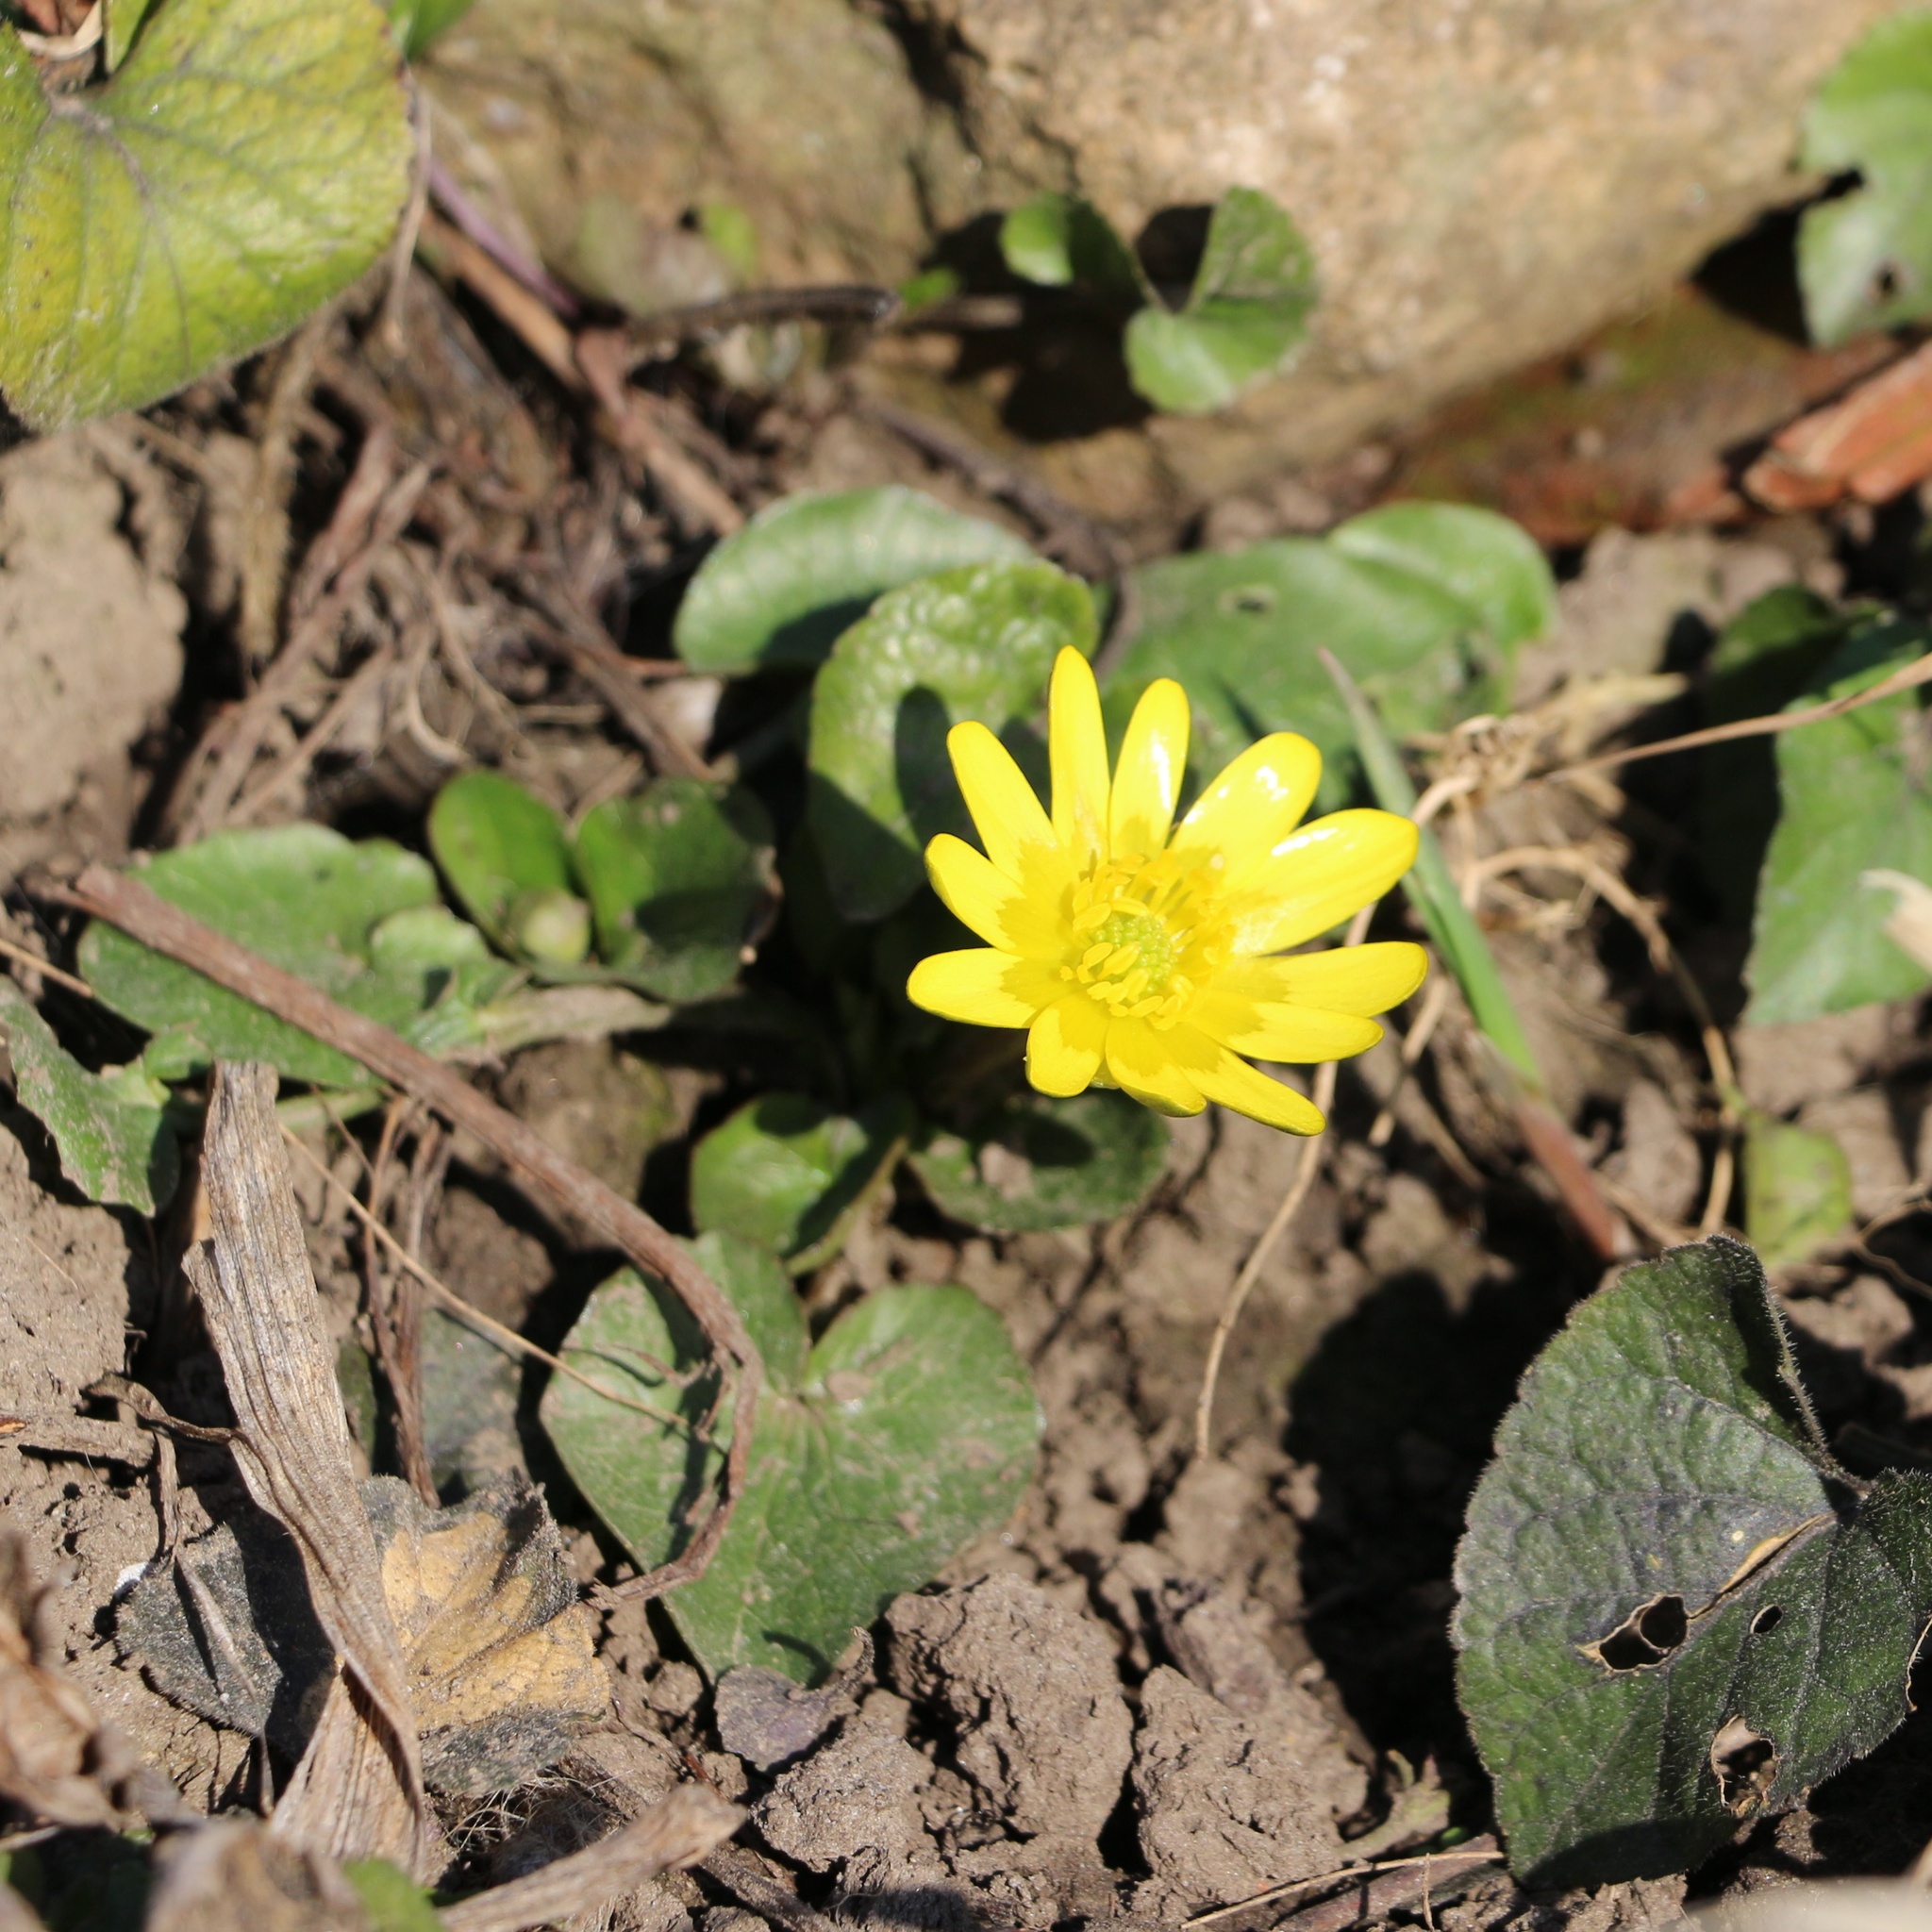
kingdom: Plantae
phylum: Tracheophyta
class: Magnoliopsida
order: Ranunculales
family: Ranunculaceae
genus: Ficaria
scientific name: Ficaria verna
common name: Lesser celandine
